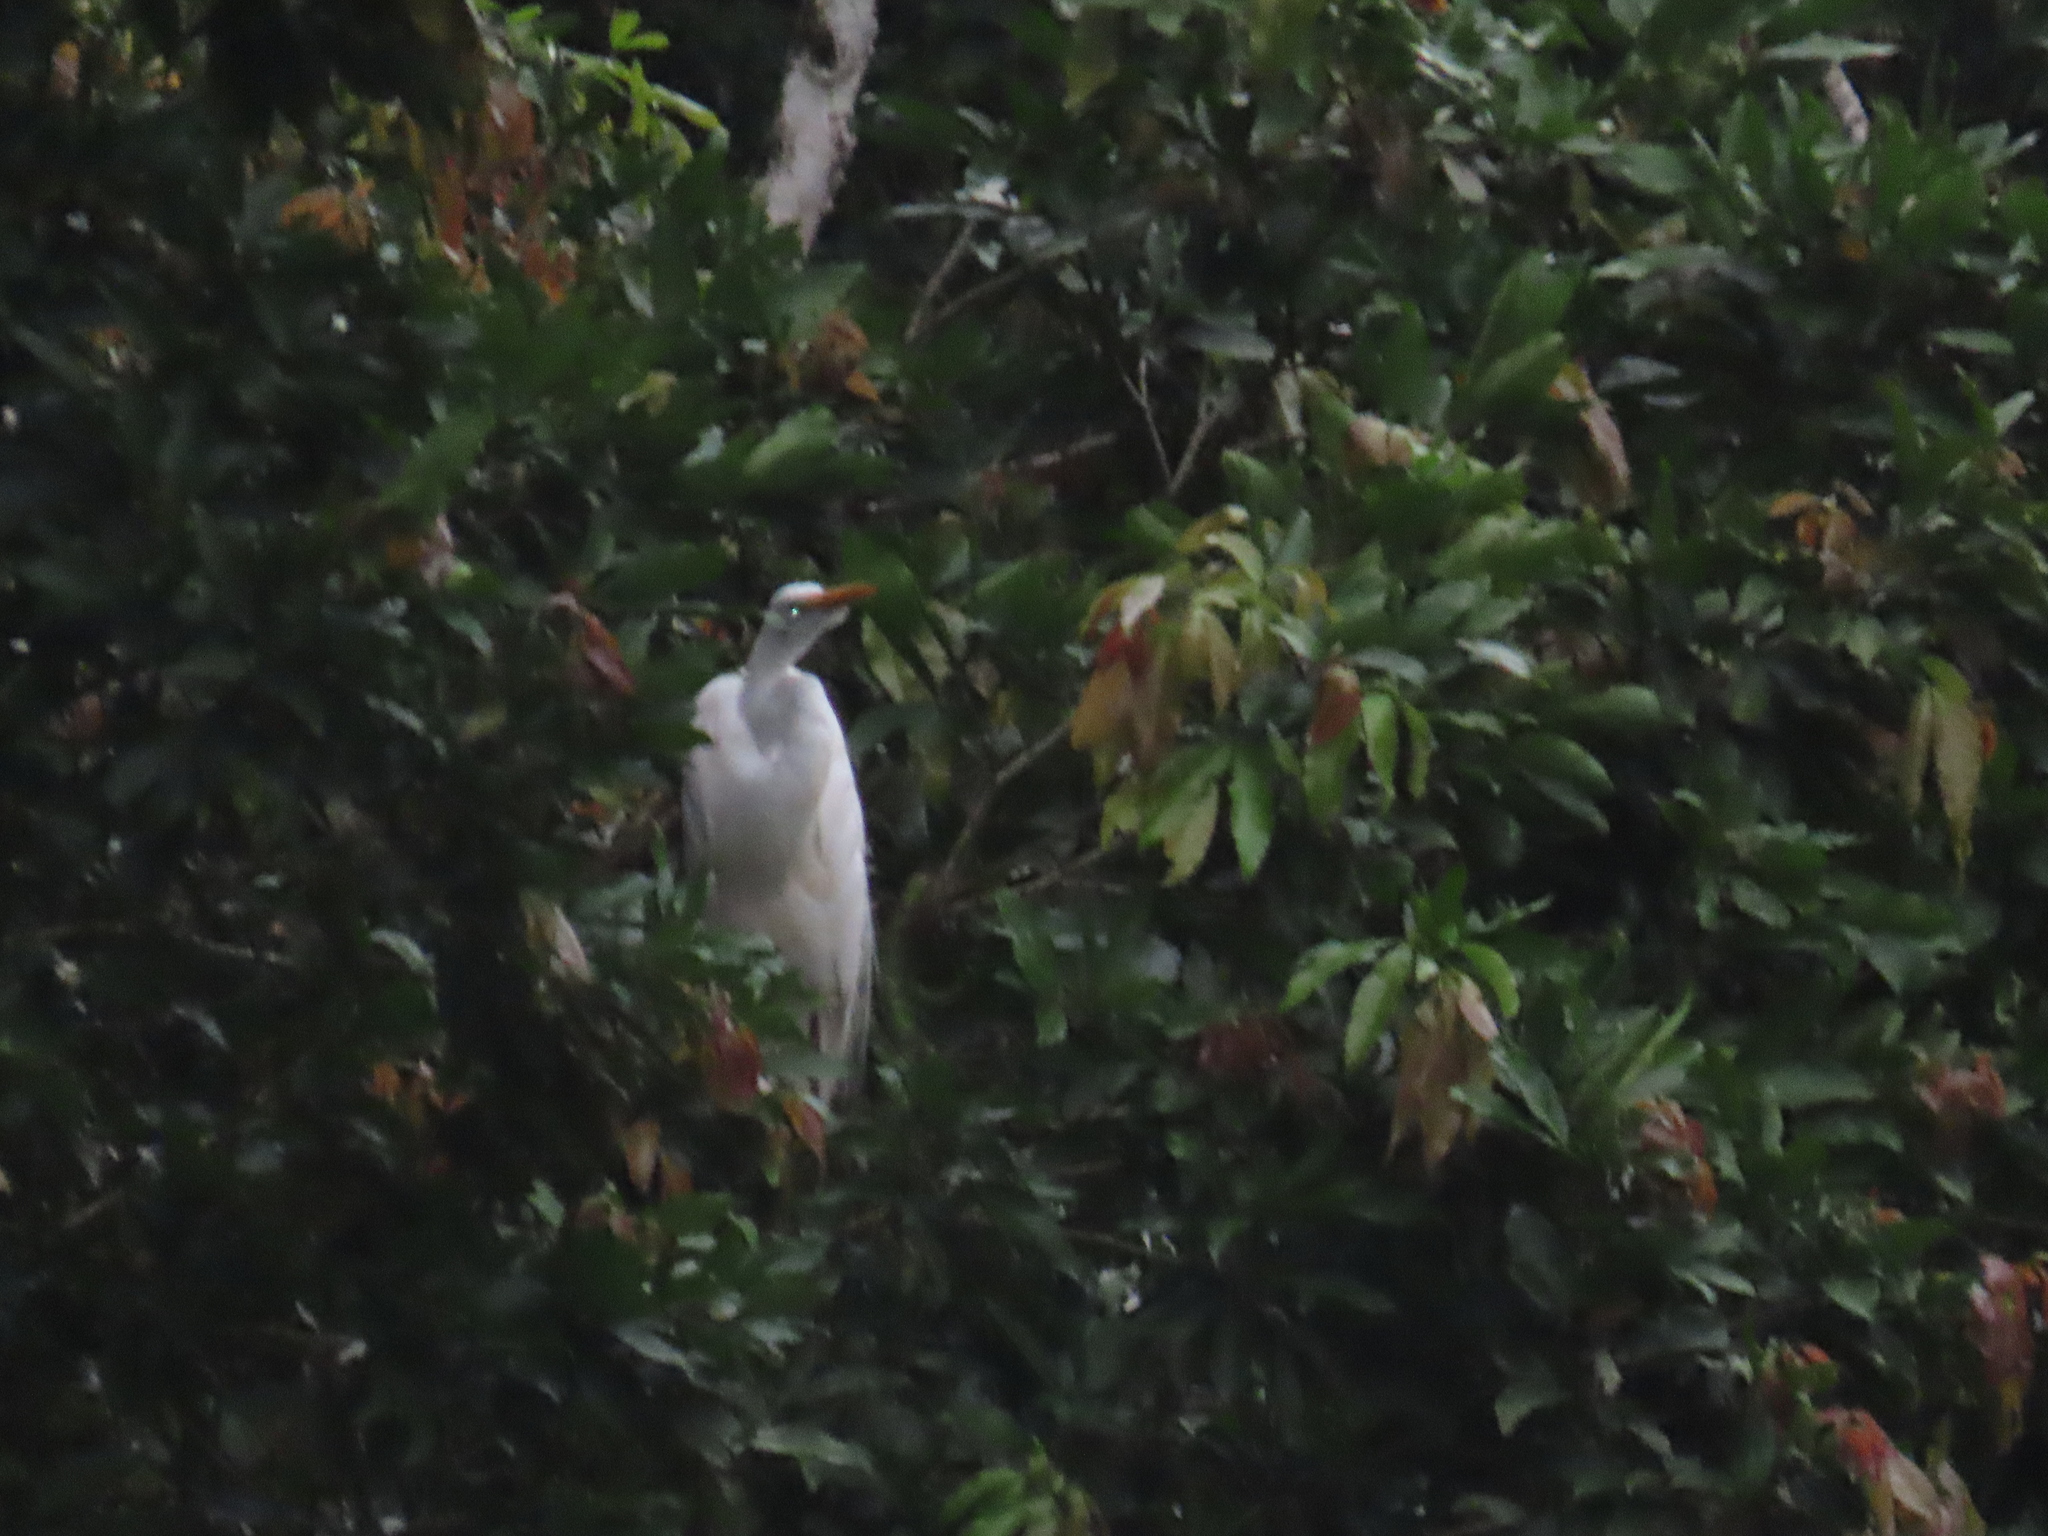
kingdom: Animalia
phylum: Chordata
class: Aves
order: Pelecaniformes
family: Ardeidae
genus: Bubulcus
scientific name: Bubulcus ibis
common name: Cattle egret
